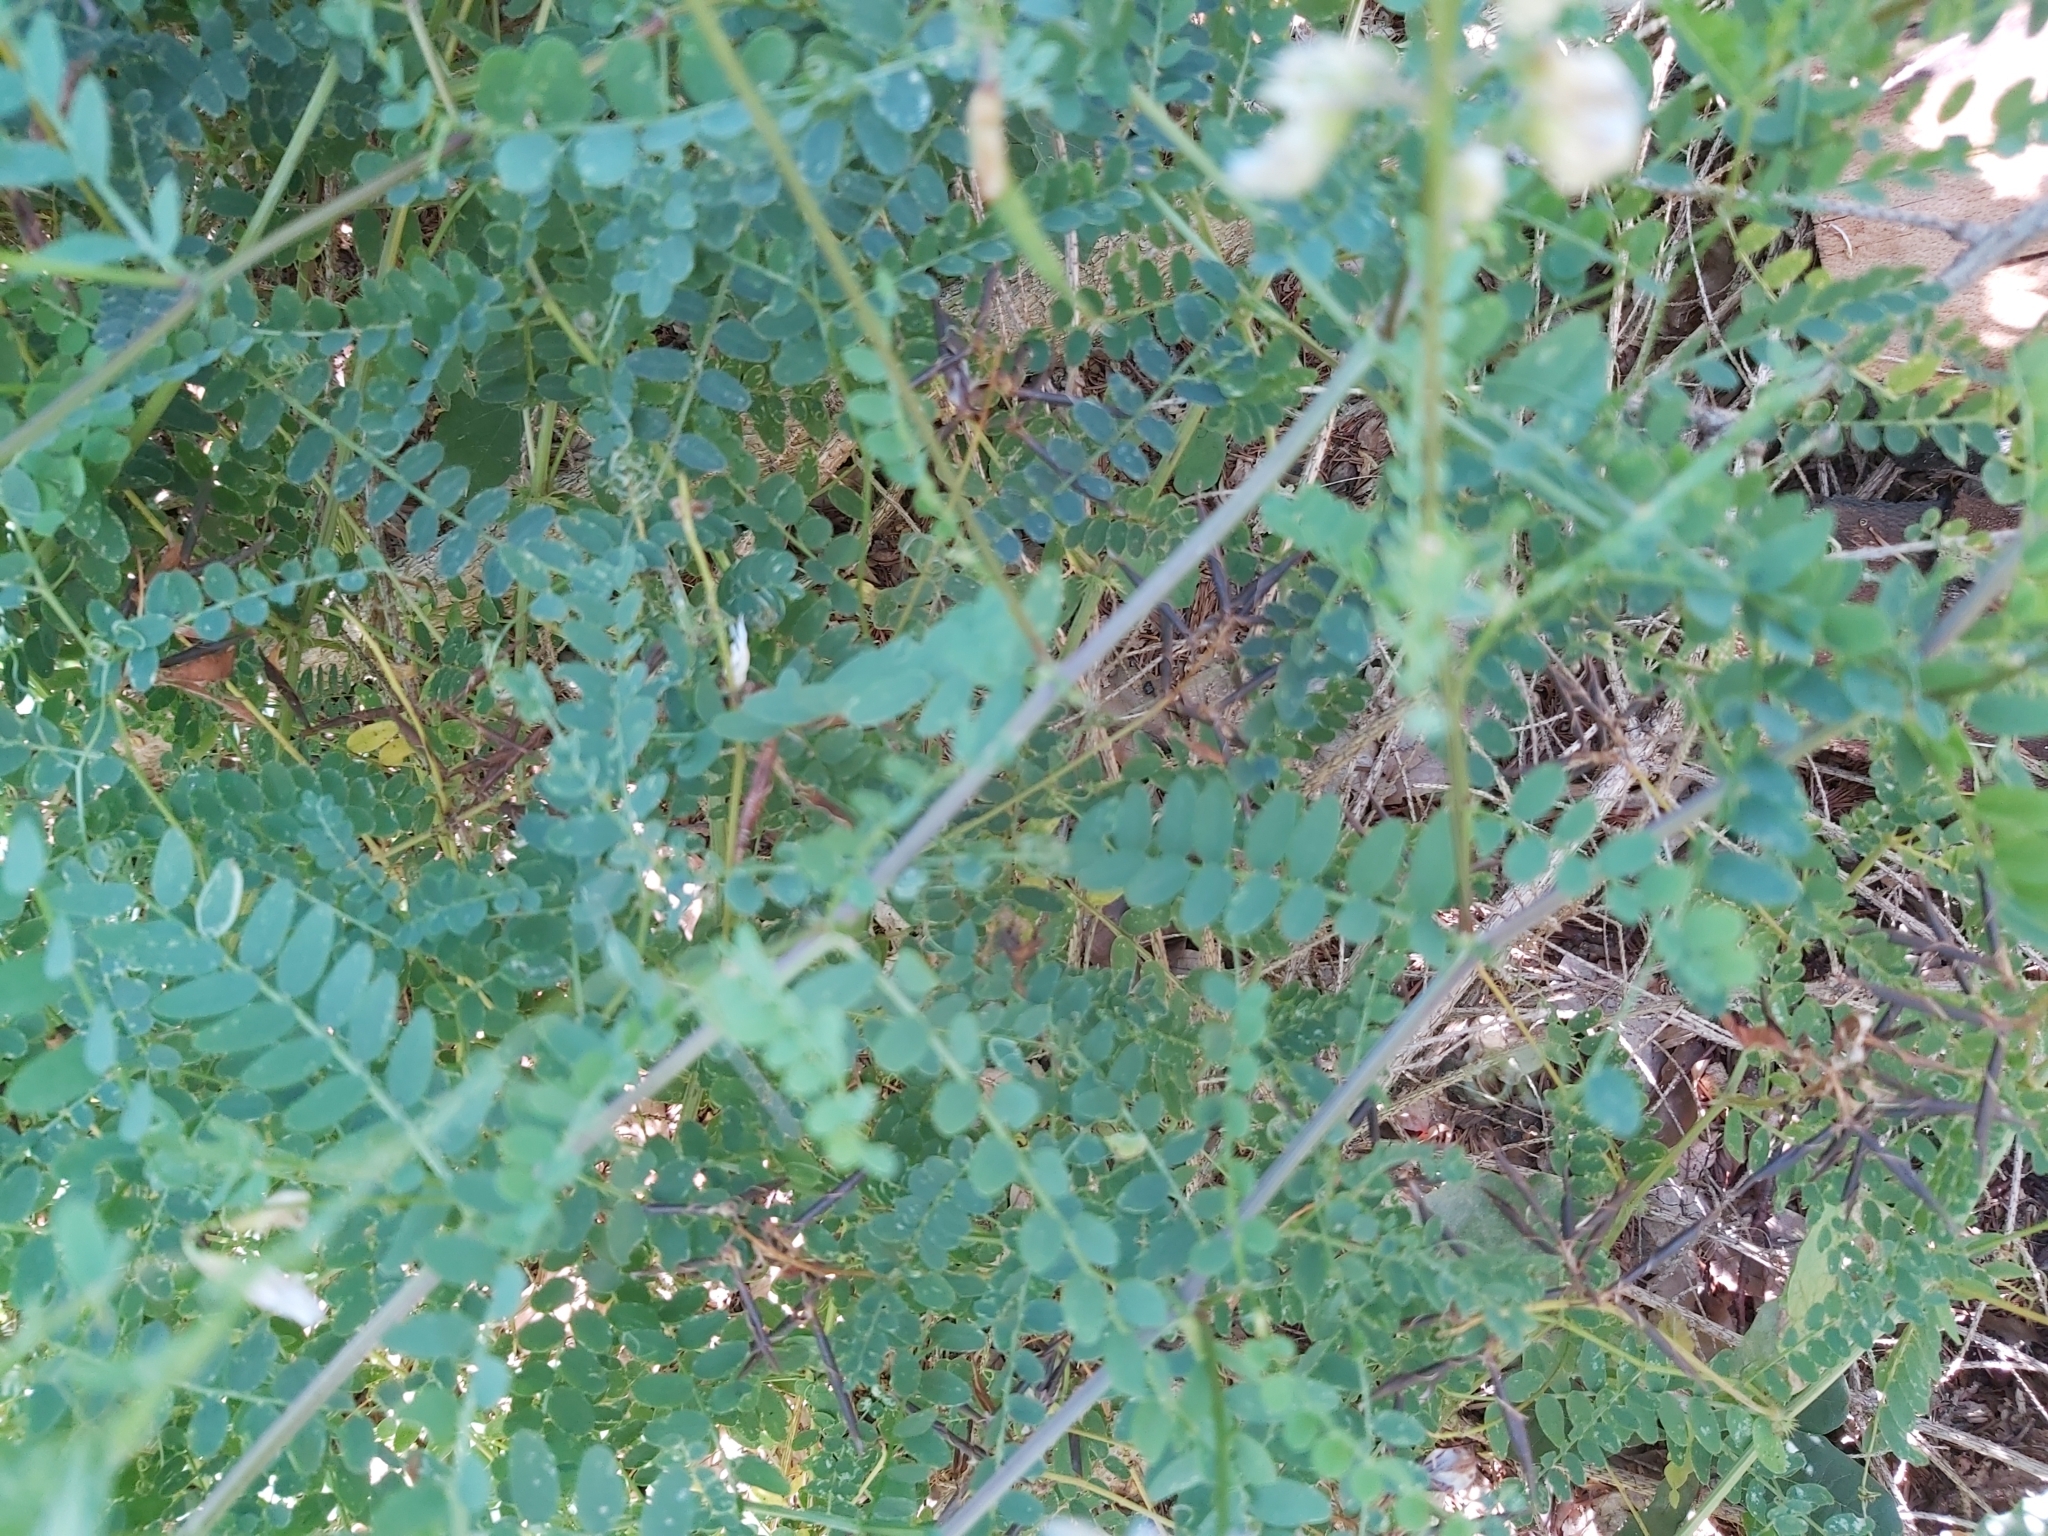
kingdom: Plantae
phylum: Tracheophyta
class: Magnoliopsida
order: Fabales
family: Fabaceae
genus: Vicia
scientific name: Vicia sylvatica
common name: Wood vetch
